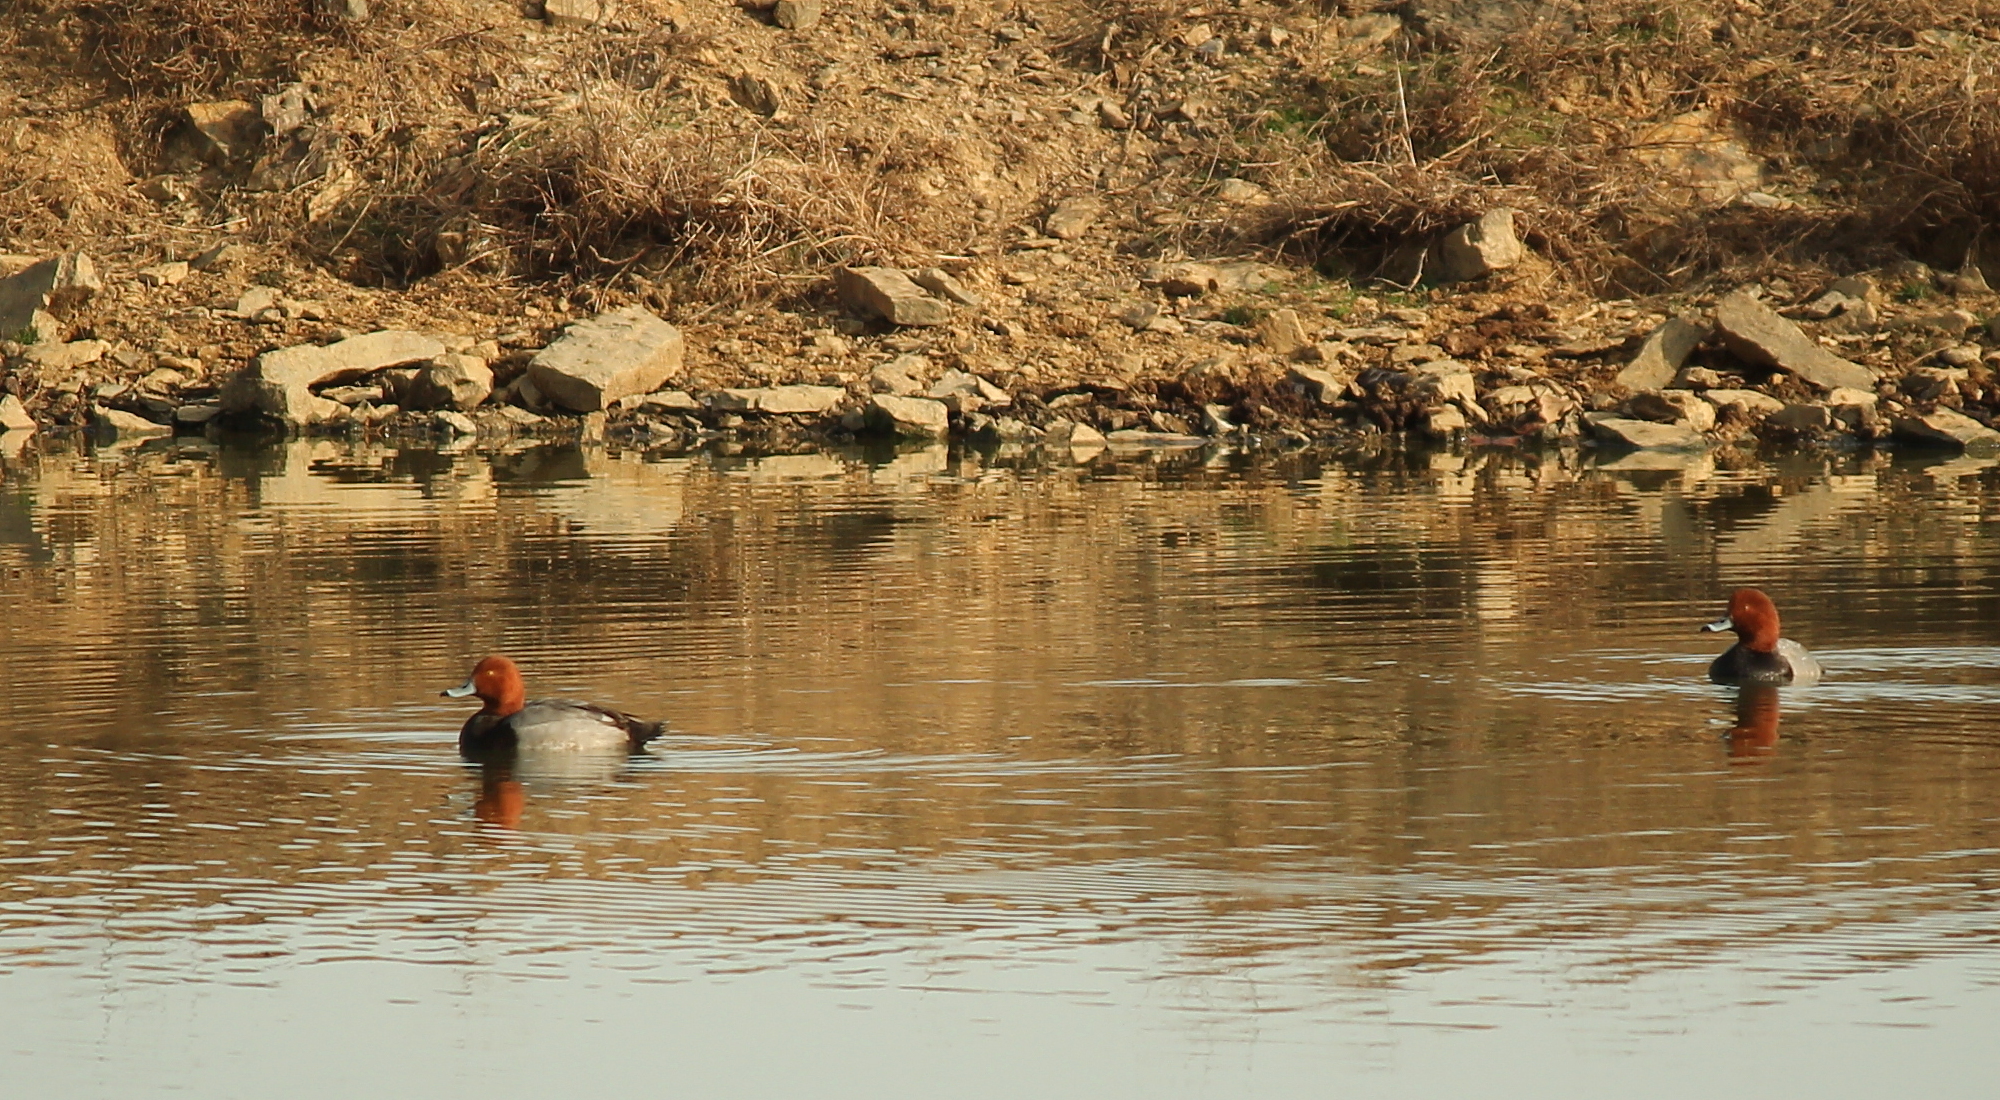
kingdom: Animalia
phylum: Chordata
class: Aves
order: Anseriformes
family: Anatidae
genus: Aythya
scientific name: Aythya americana
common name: Redhead
